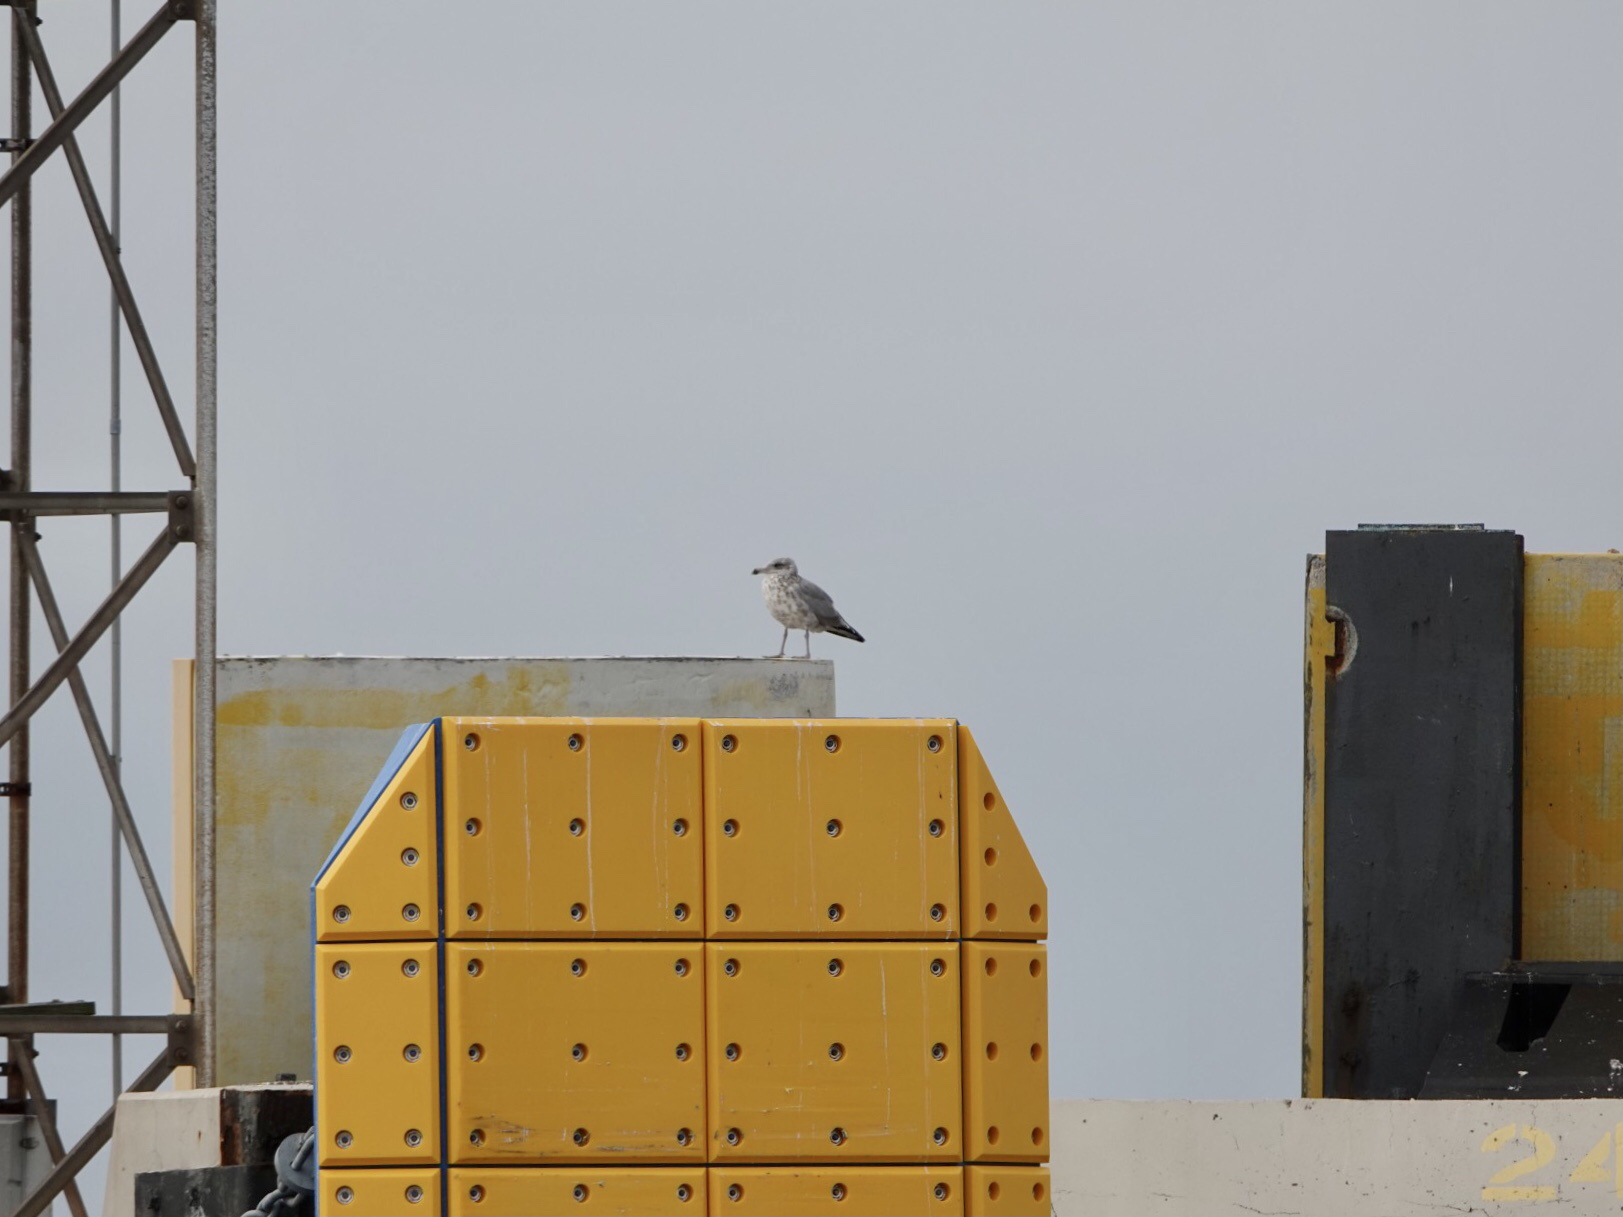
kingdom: Animalia
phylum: Chordata
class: Aves
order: Charadriiformes
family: Laridae
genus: Larus
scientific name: Larus argentatus
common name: Herring gull
